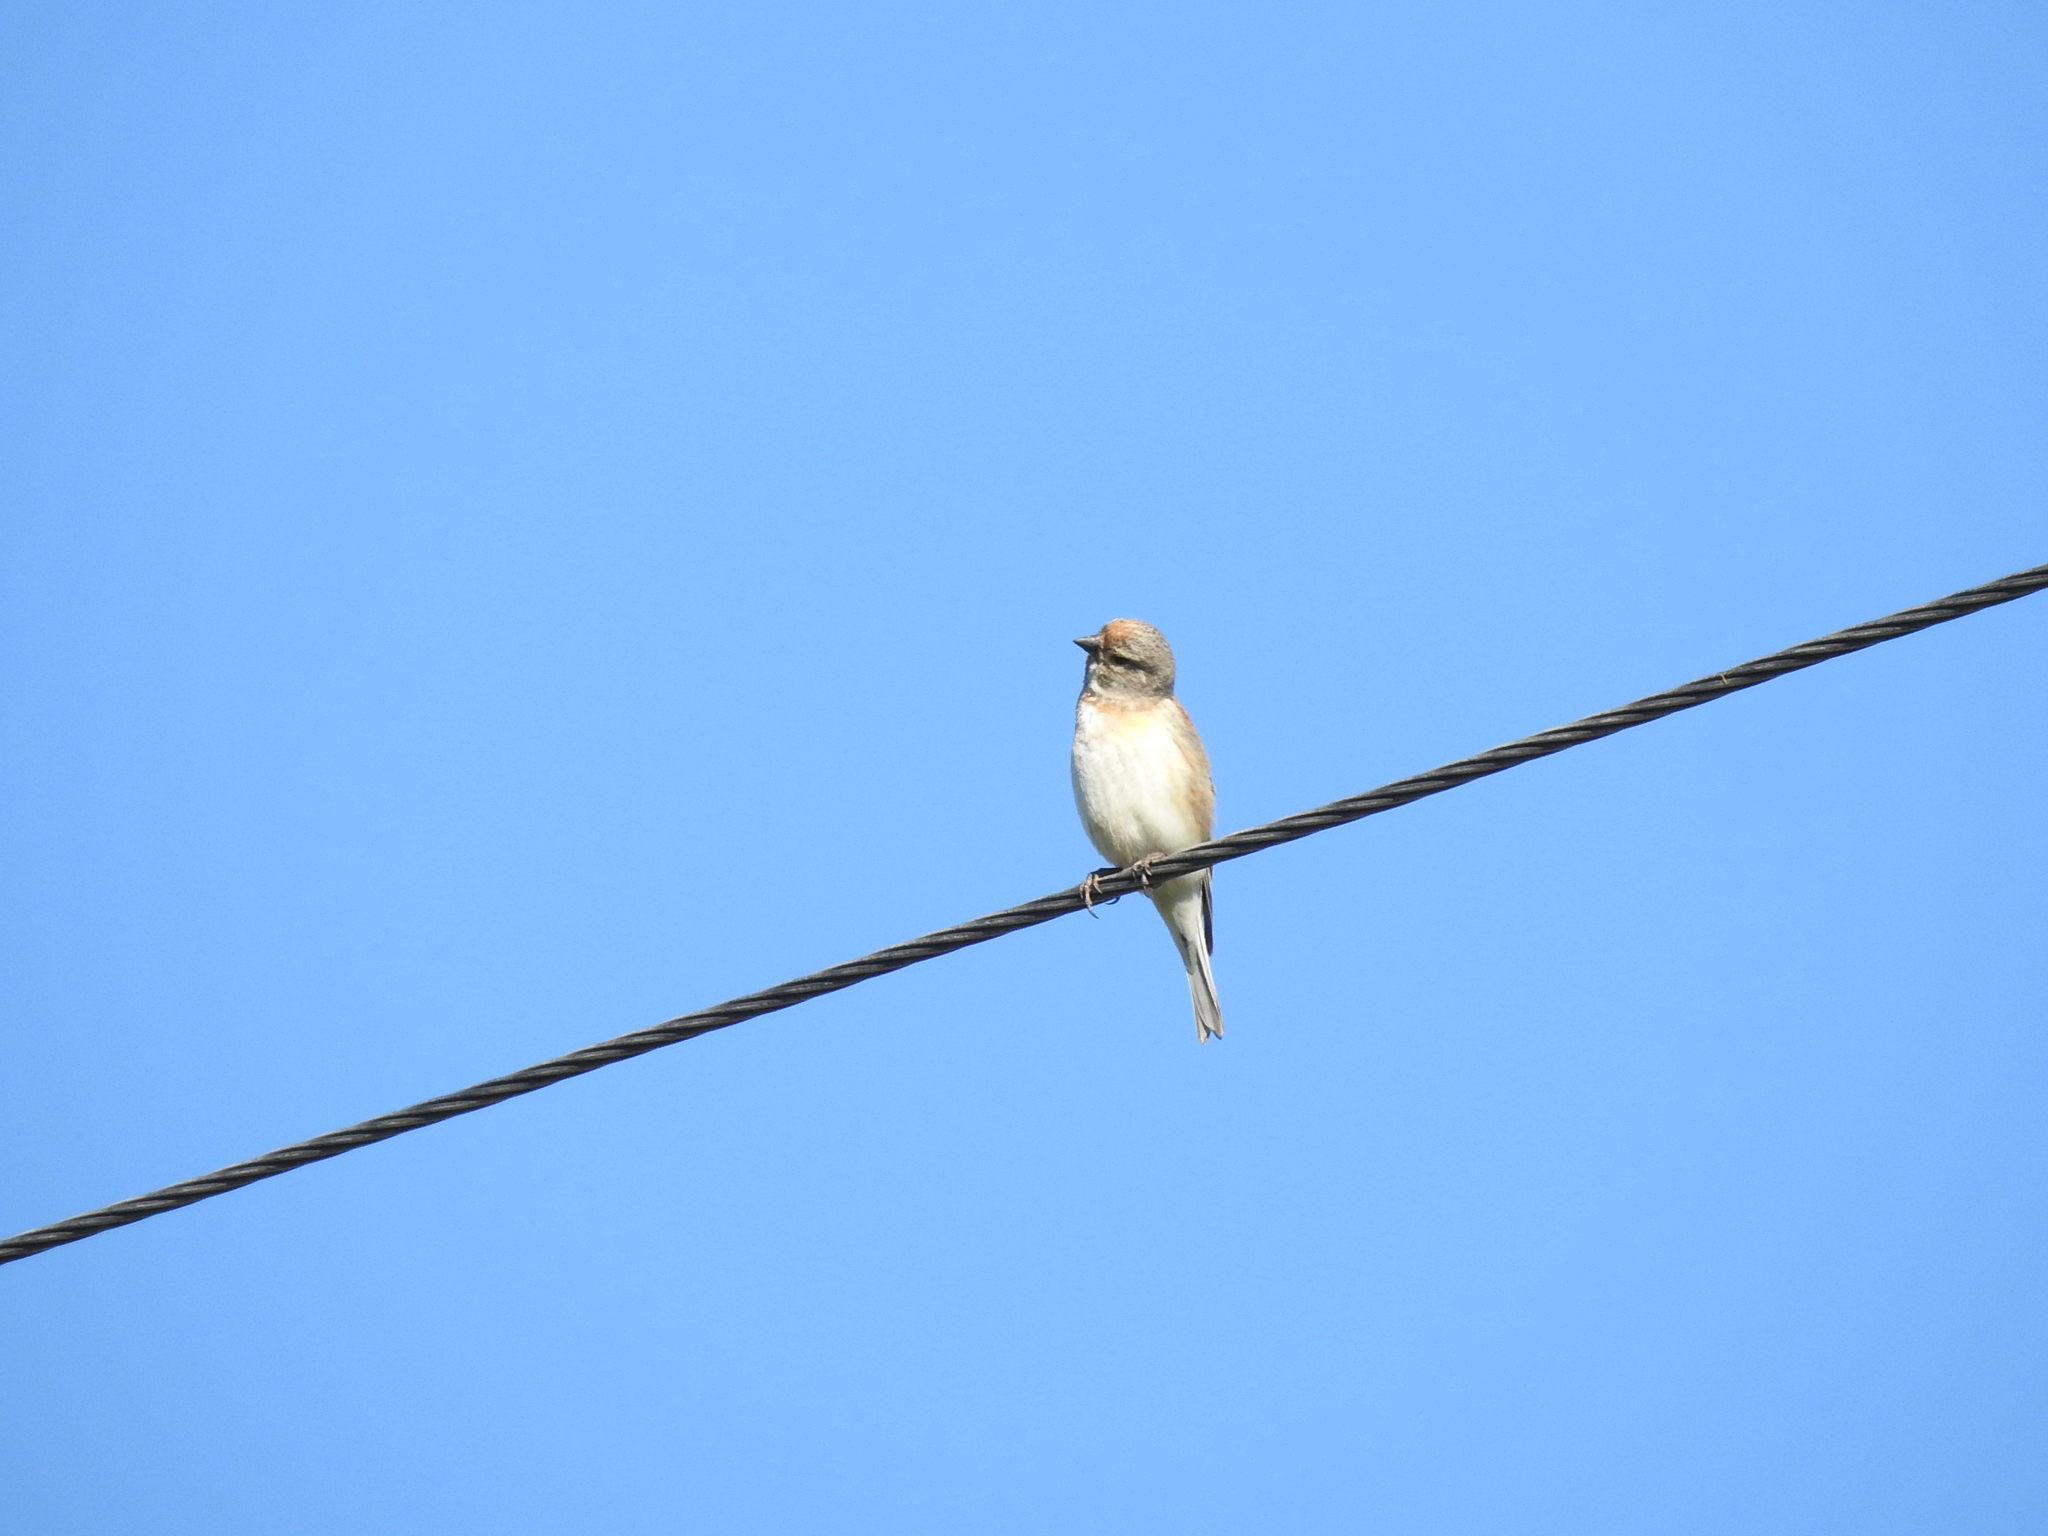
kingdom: Animalia
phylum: Chordata
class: Aves
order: Passeriformes
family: Fringillidae
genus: Linaria
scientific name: Linaria cannabina
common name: Common linnet
